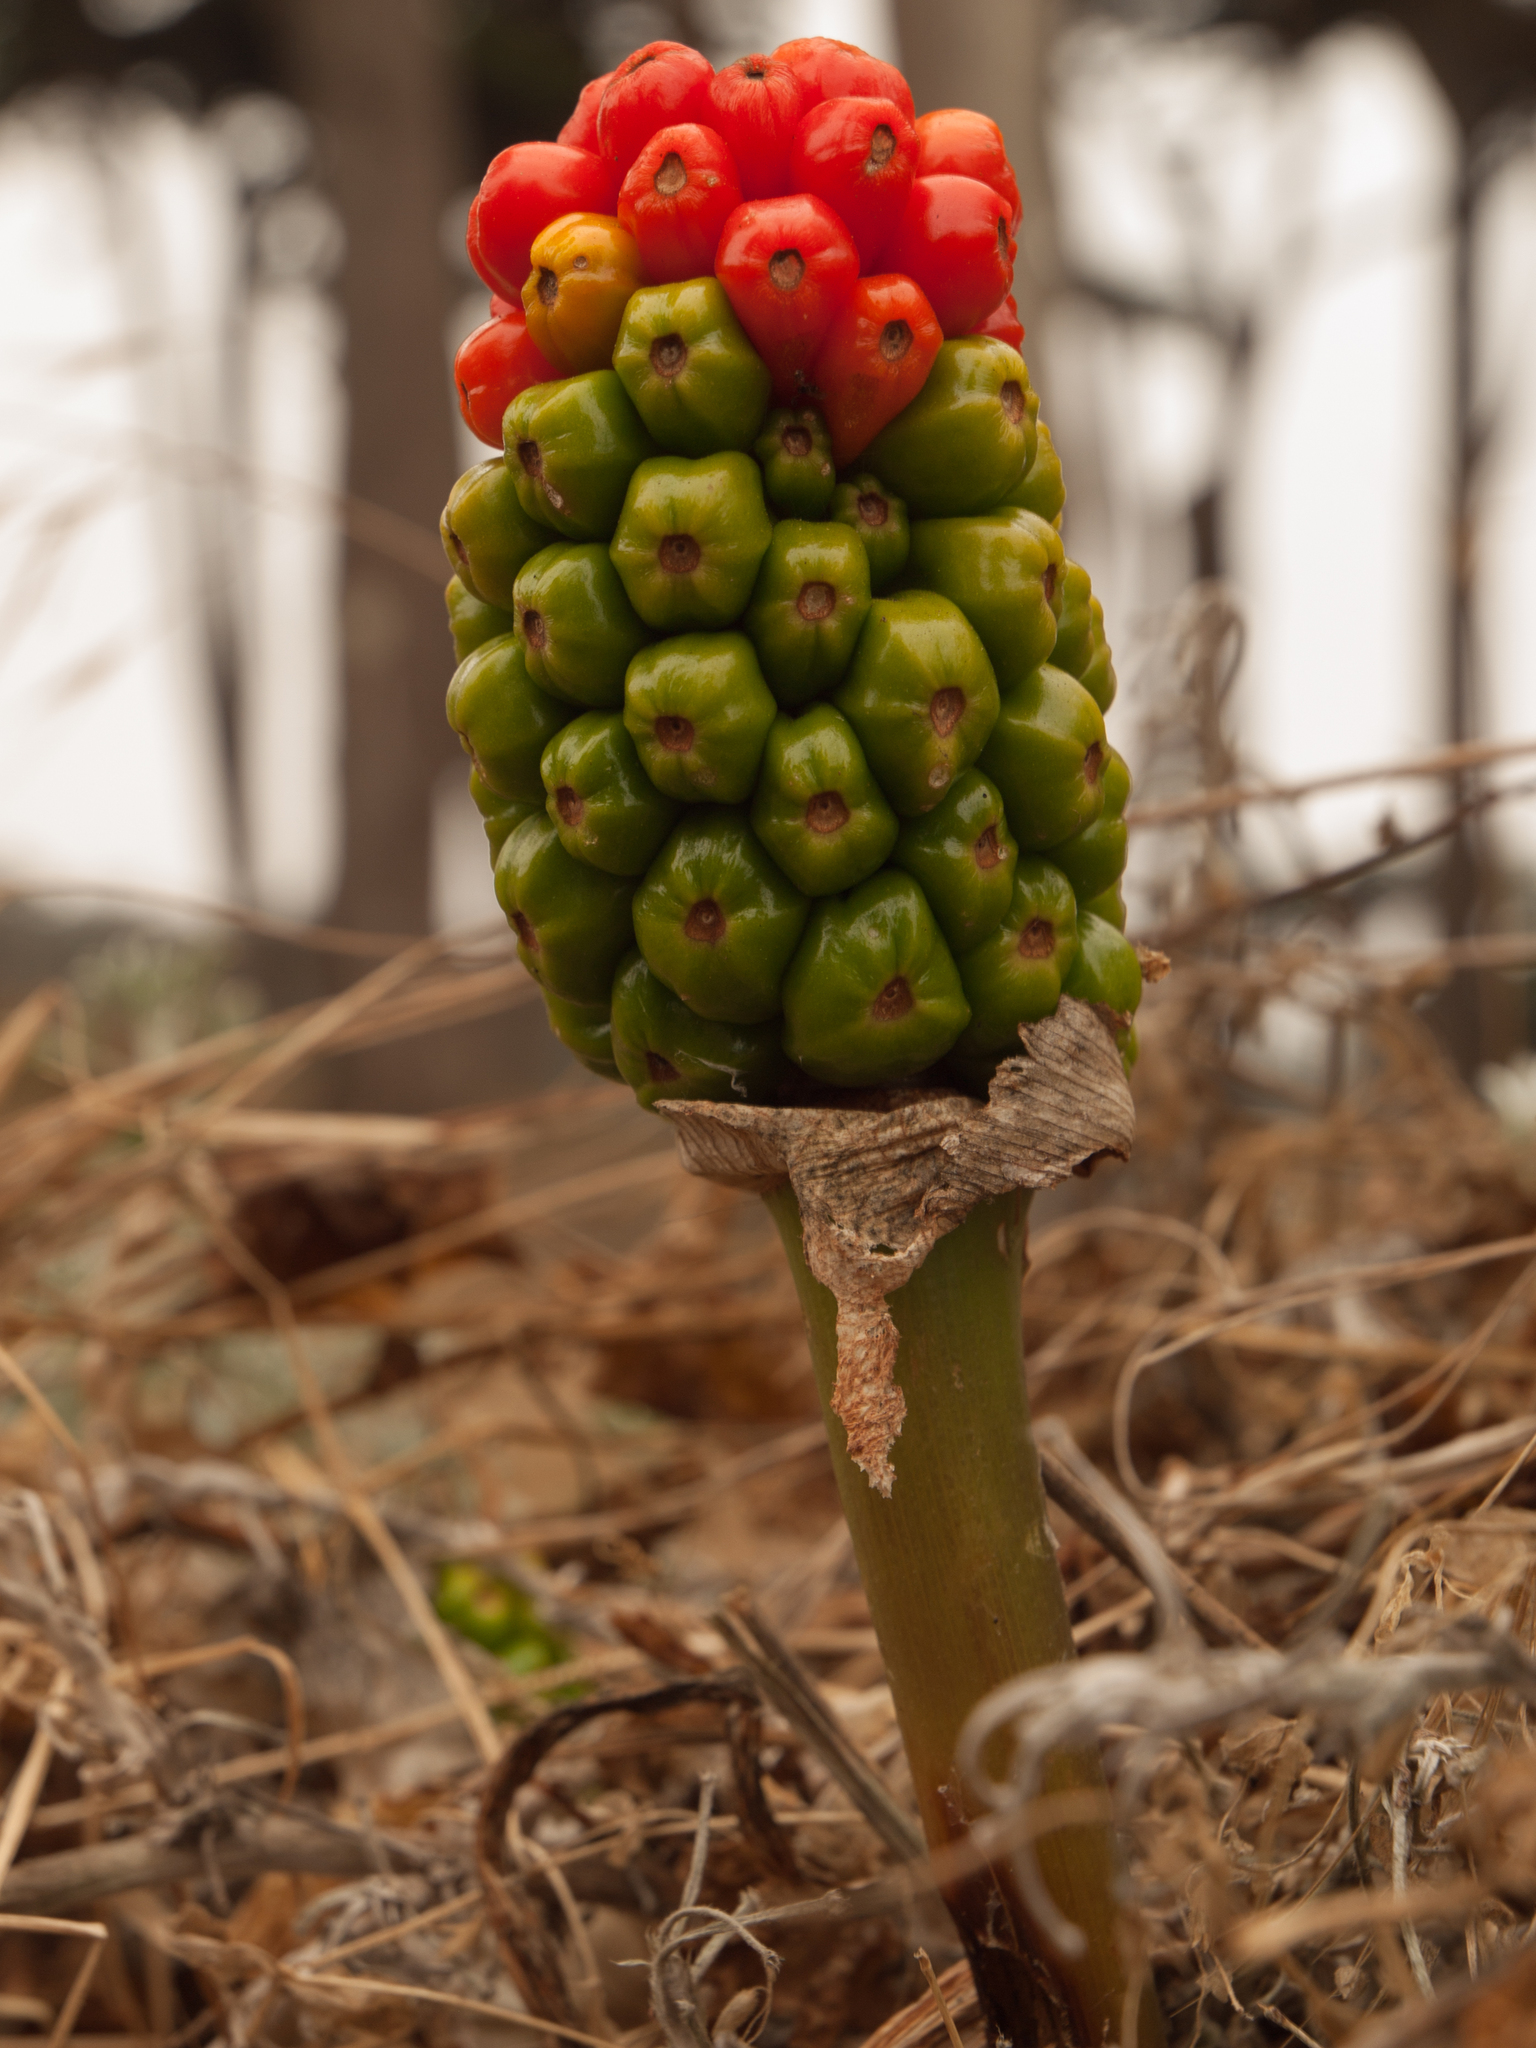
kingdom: Plantae
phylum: Tracheophyta
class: Liliopsida
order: Alismatales
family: Araceae
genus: Arum
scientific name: Arum italicum
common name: Italian lords-and-ladies
